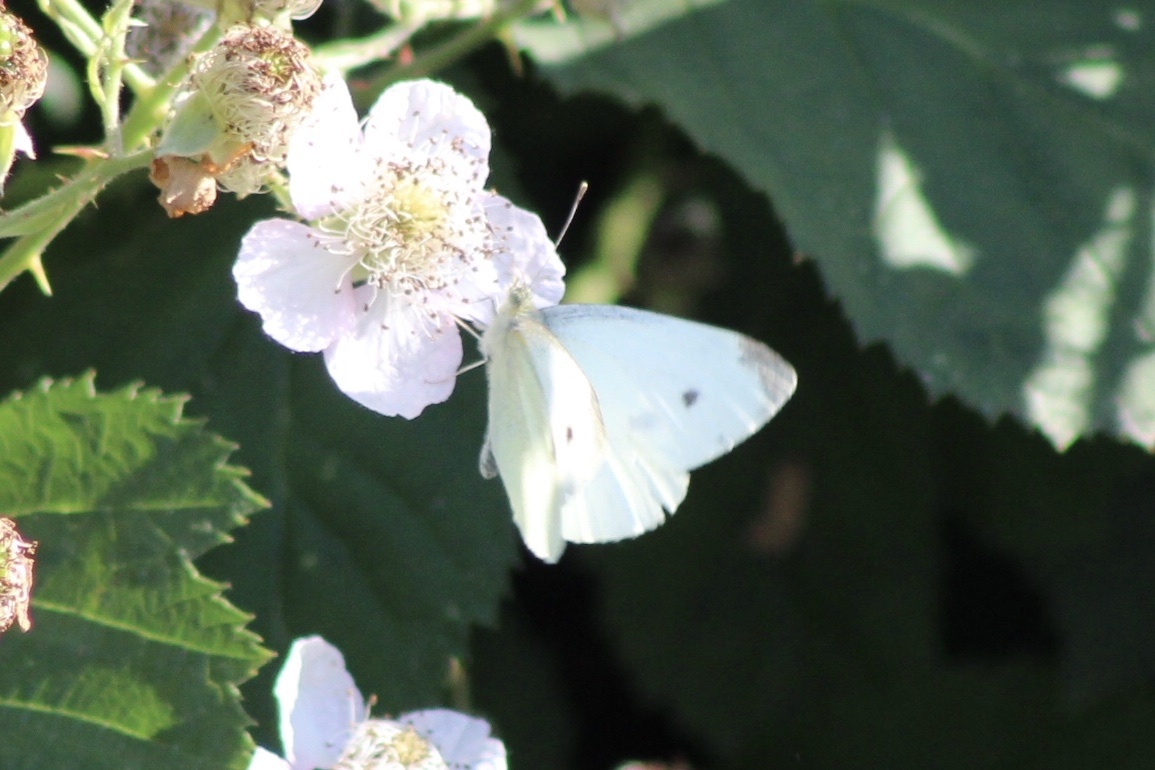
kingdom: Animalia
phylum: Arthropoda
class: Insecta
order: Lepidoptera
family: Pieridae
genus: Pieris
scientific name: Pieris rapae
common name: Small white
